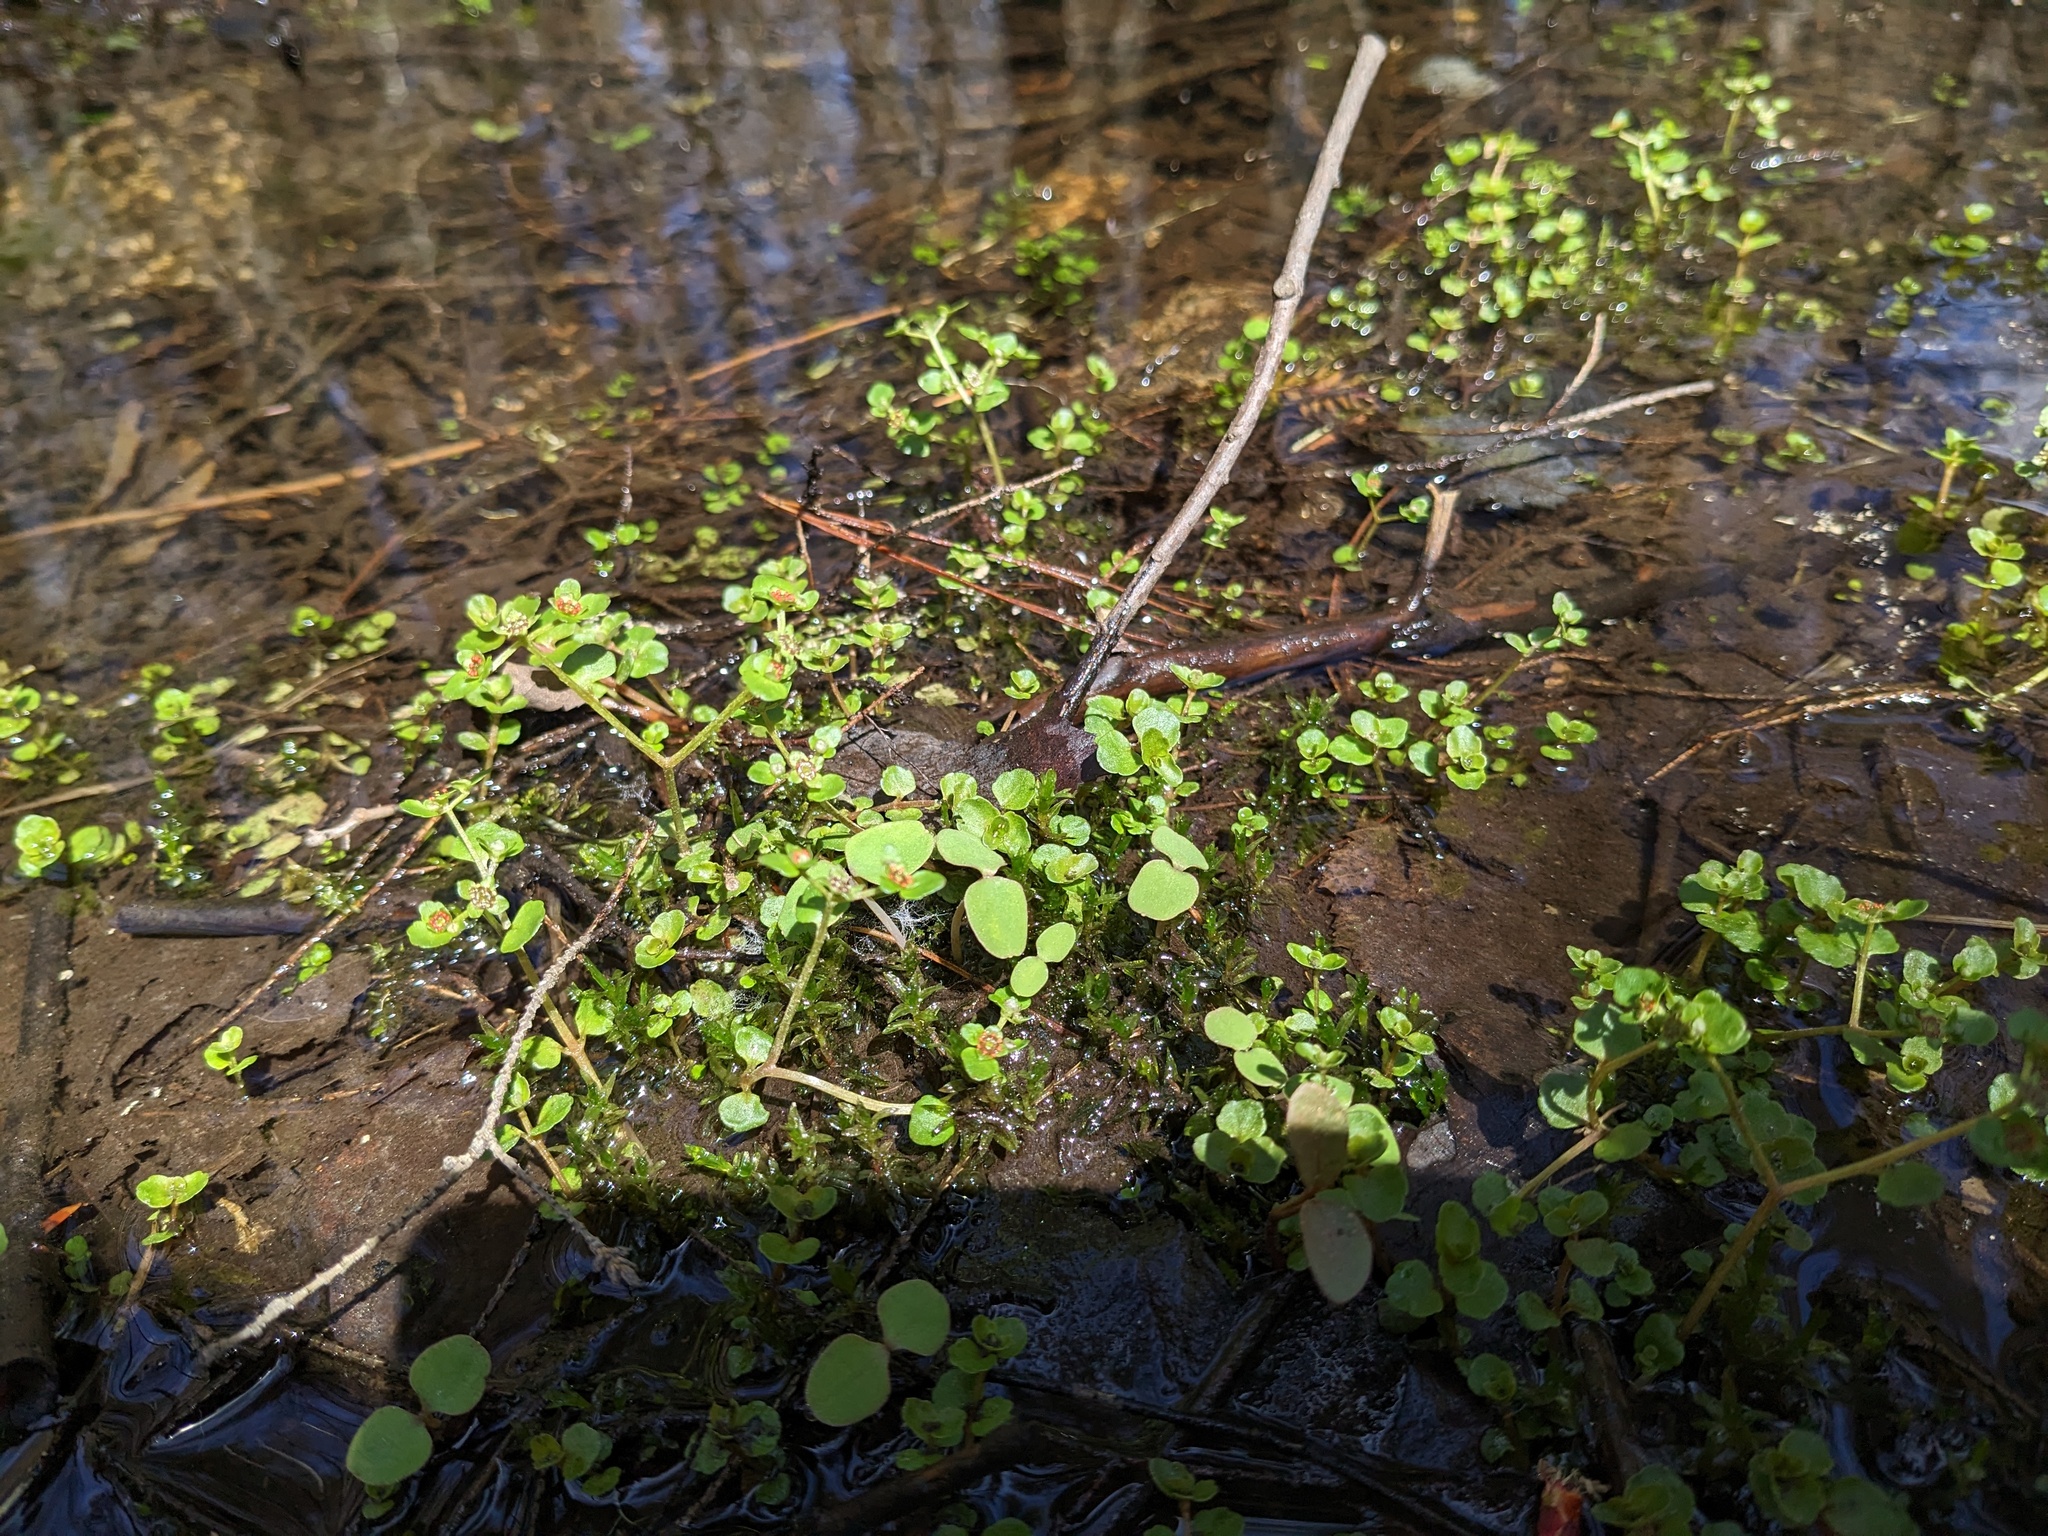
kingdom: Plantae
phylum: Tracheophyta
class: Magnoliopsida
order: Saxifragales
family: Saxifragaceae
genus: Chrysosplenium
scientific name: Chrysosplenium americanum
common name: American golden-saxifrage
